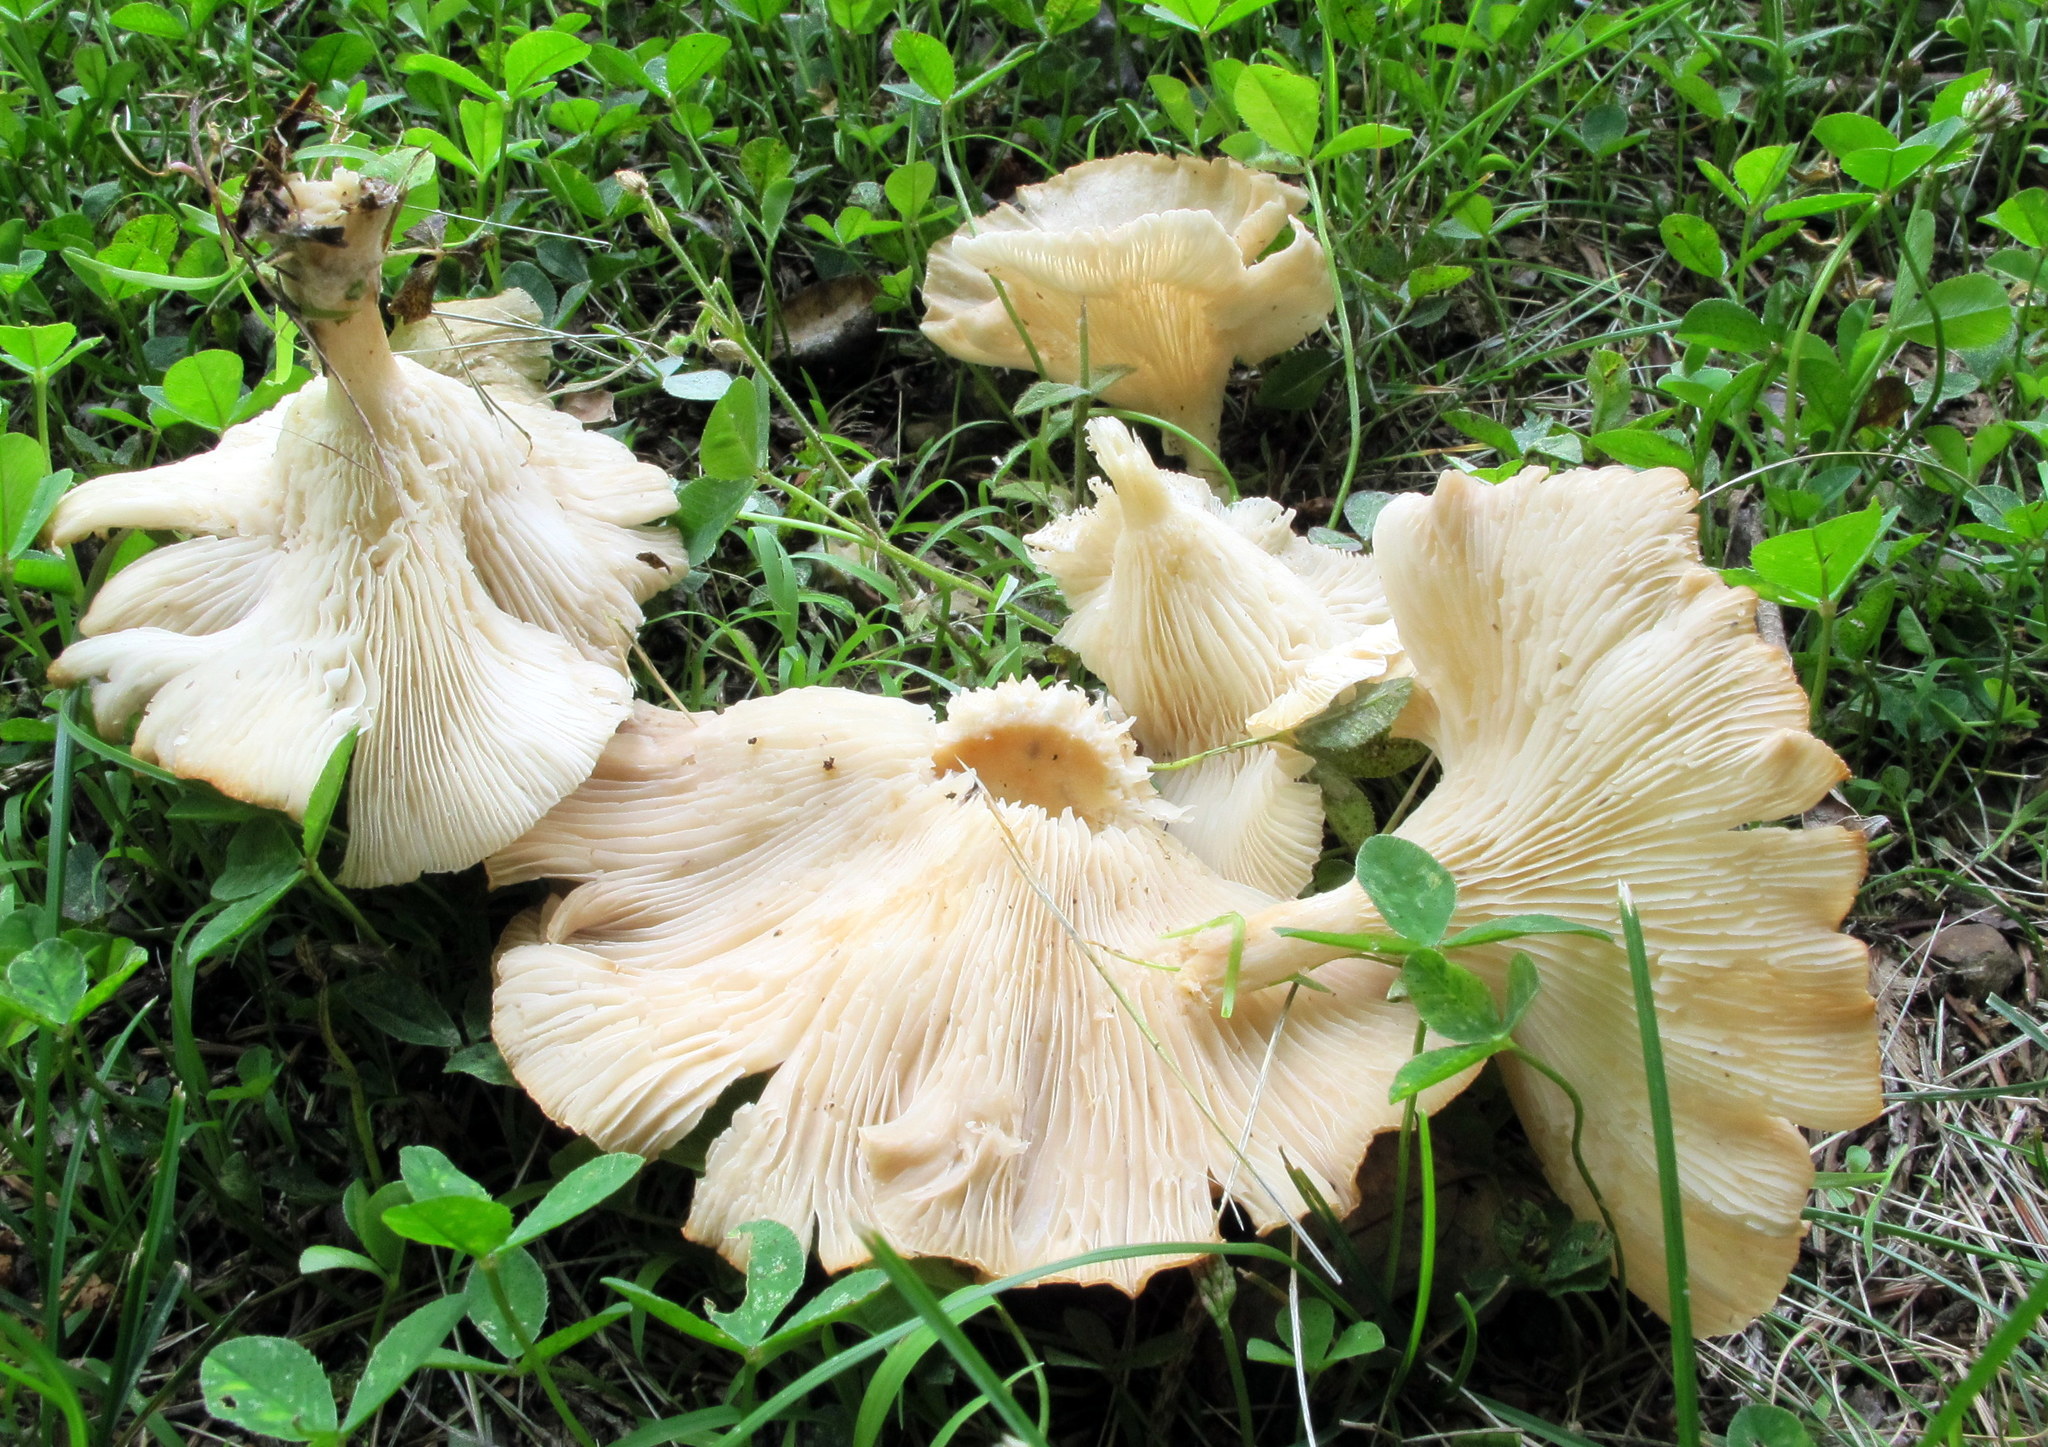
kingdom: Fungi
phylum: Basidiomycota
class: Agaricomycetes
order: Agaricales
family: Tricholomataceae
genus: Infundibulicybe
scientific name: Infundibulicybe gibba
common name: Common funnel
